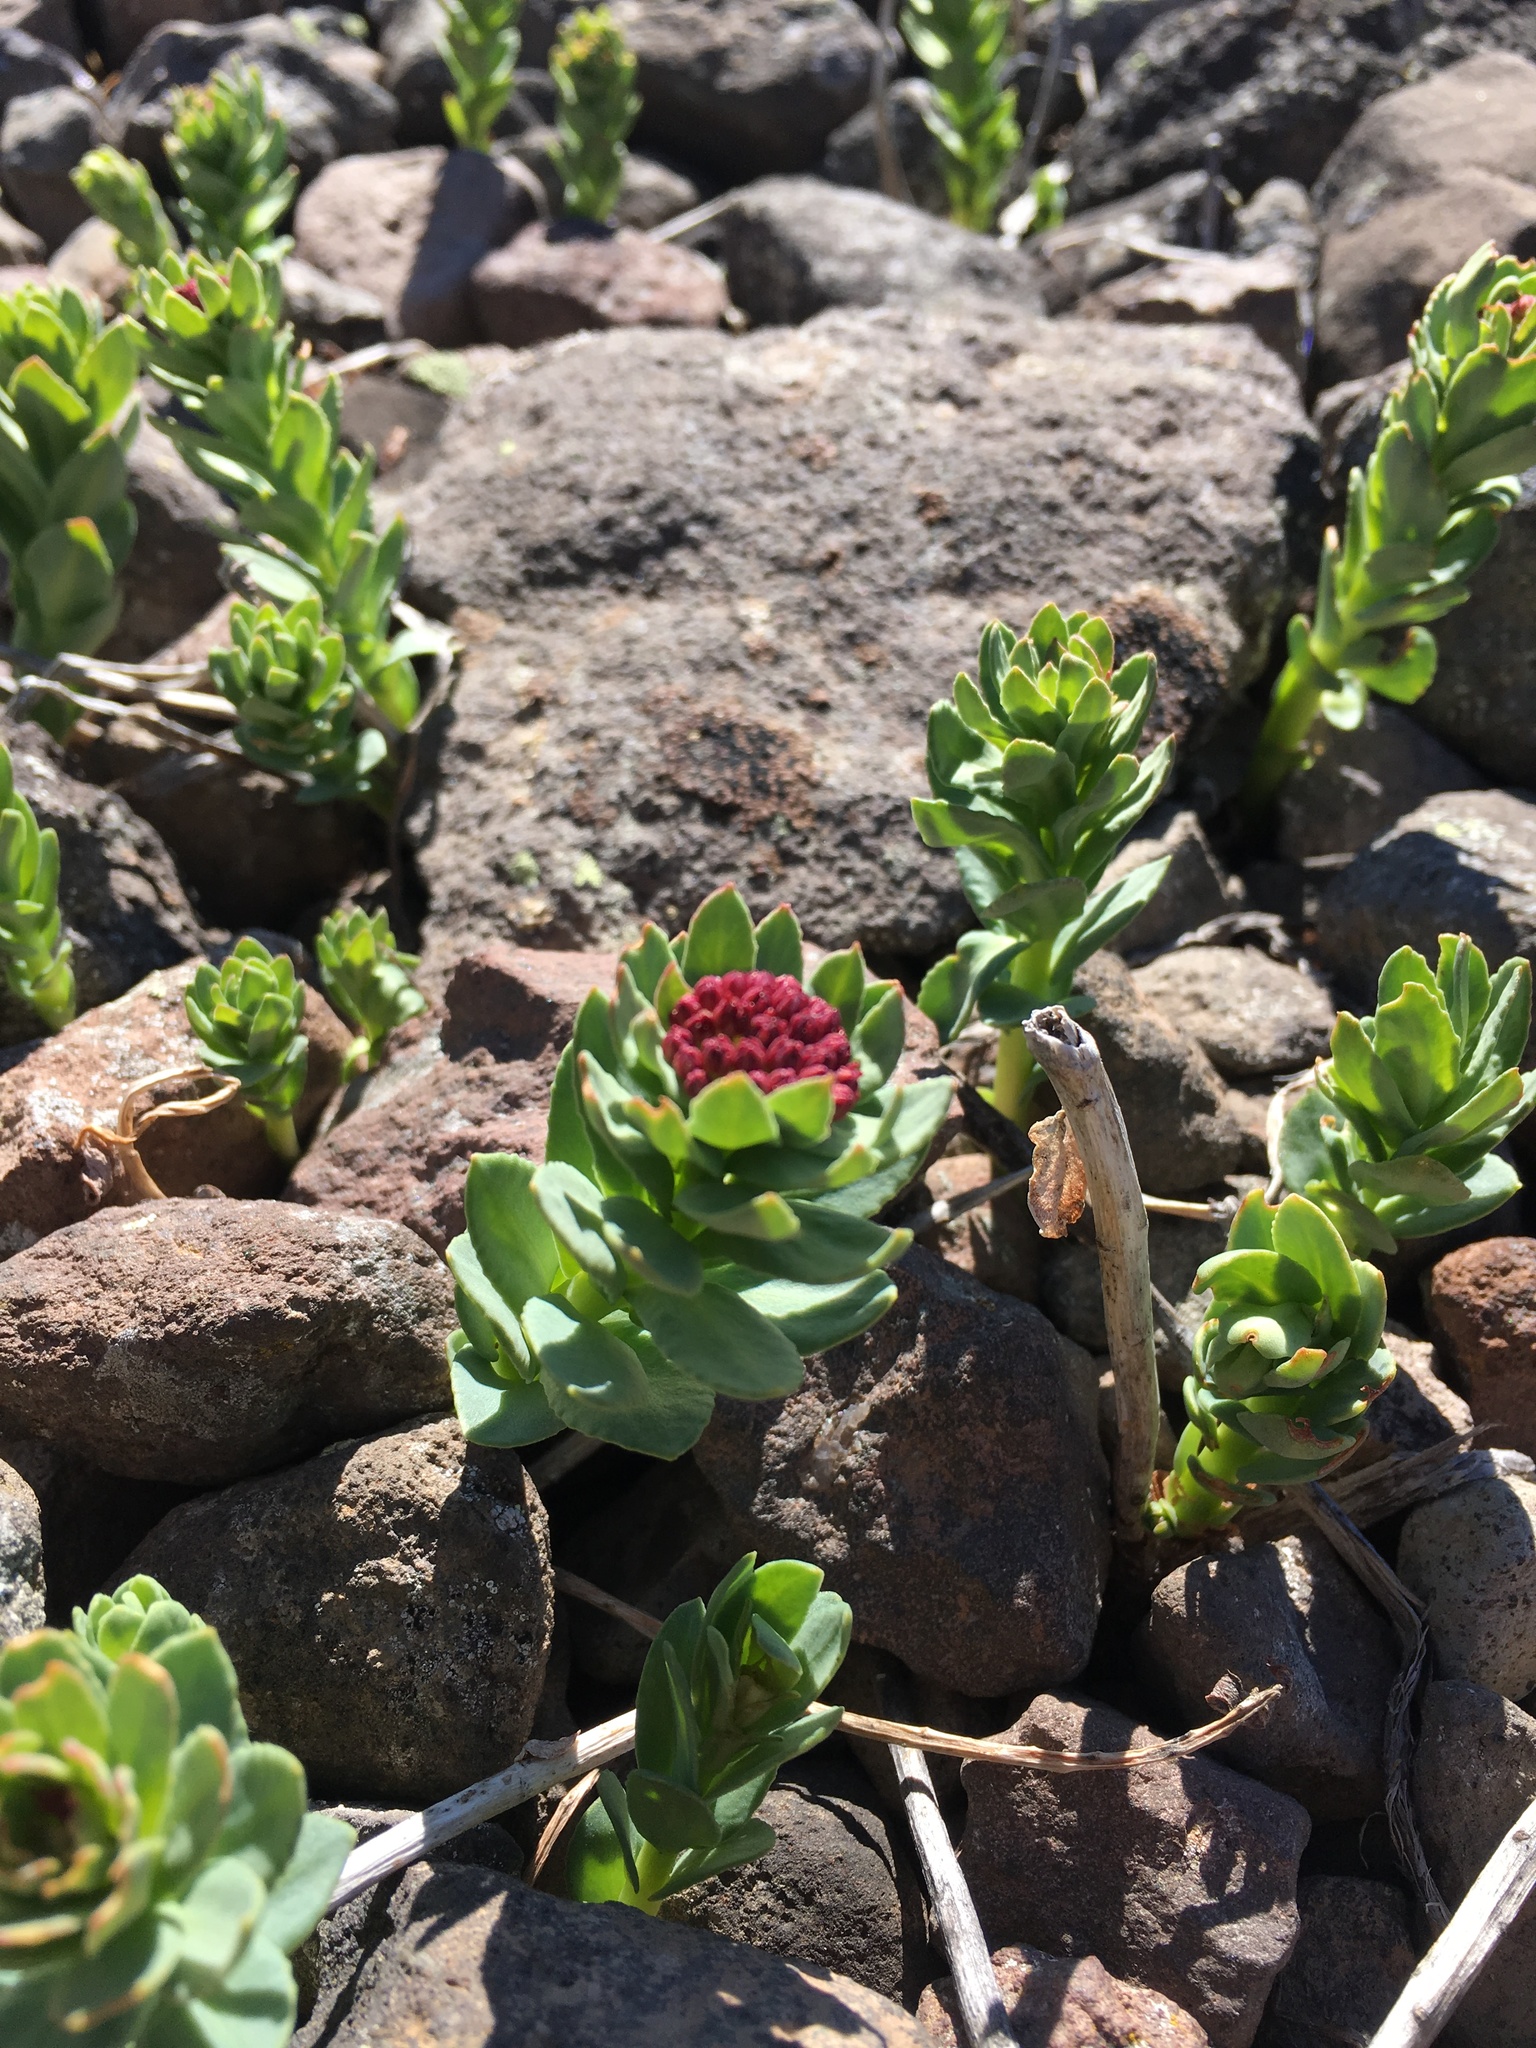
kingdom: Plantae
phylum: Tracheophyta
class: Magnoliopsida
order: Saxifragales
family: Crassulaceae
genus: Rhodiola
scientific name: Rhodiola integrifolia
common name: Western roseroot
